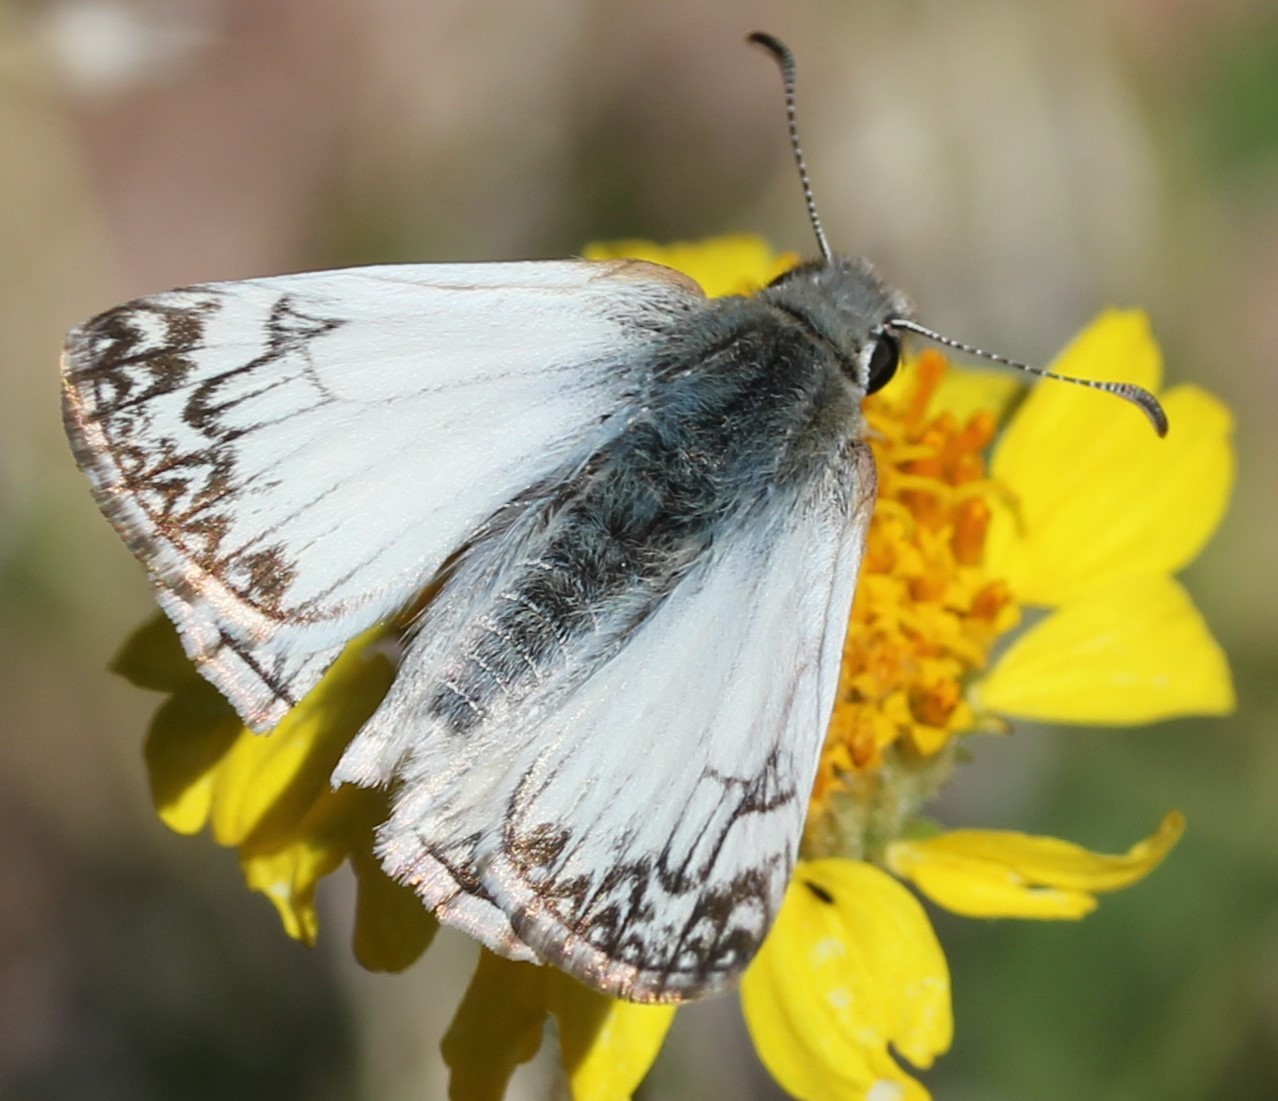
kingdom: Animalia
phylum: Arthropoda
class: Insecta
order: Lepidoptera
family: Hesperiidae
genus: Heliopetes
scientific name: Heliopetes ericetorum
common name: Northern white-skipper
